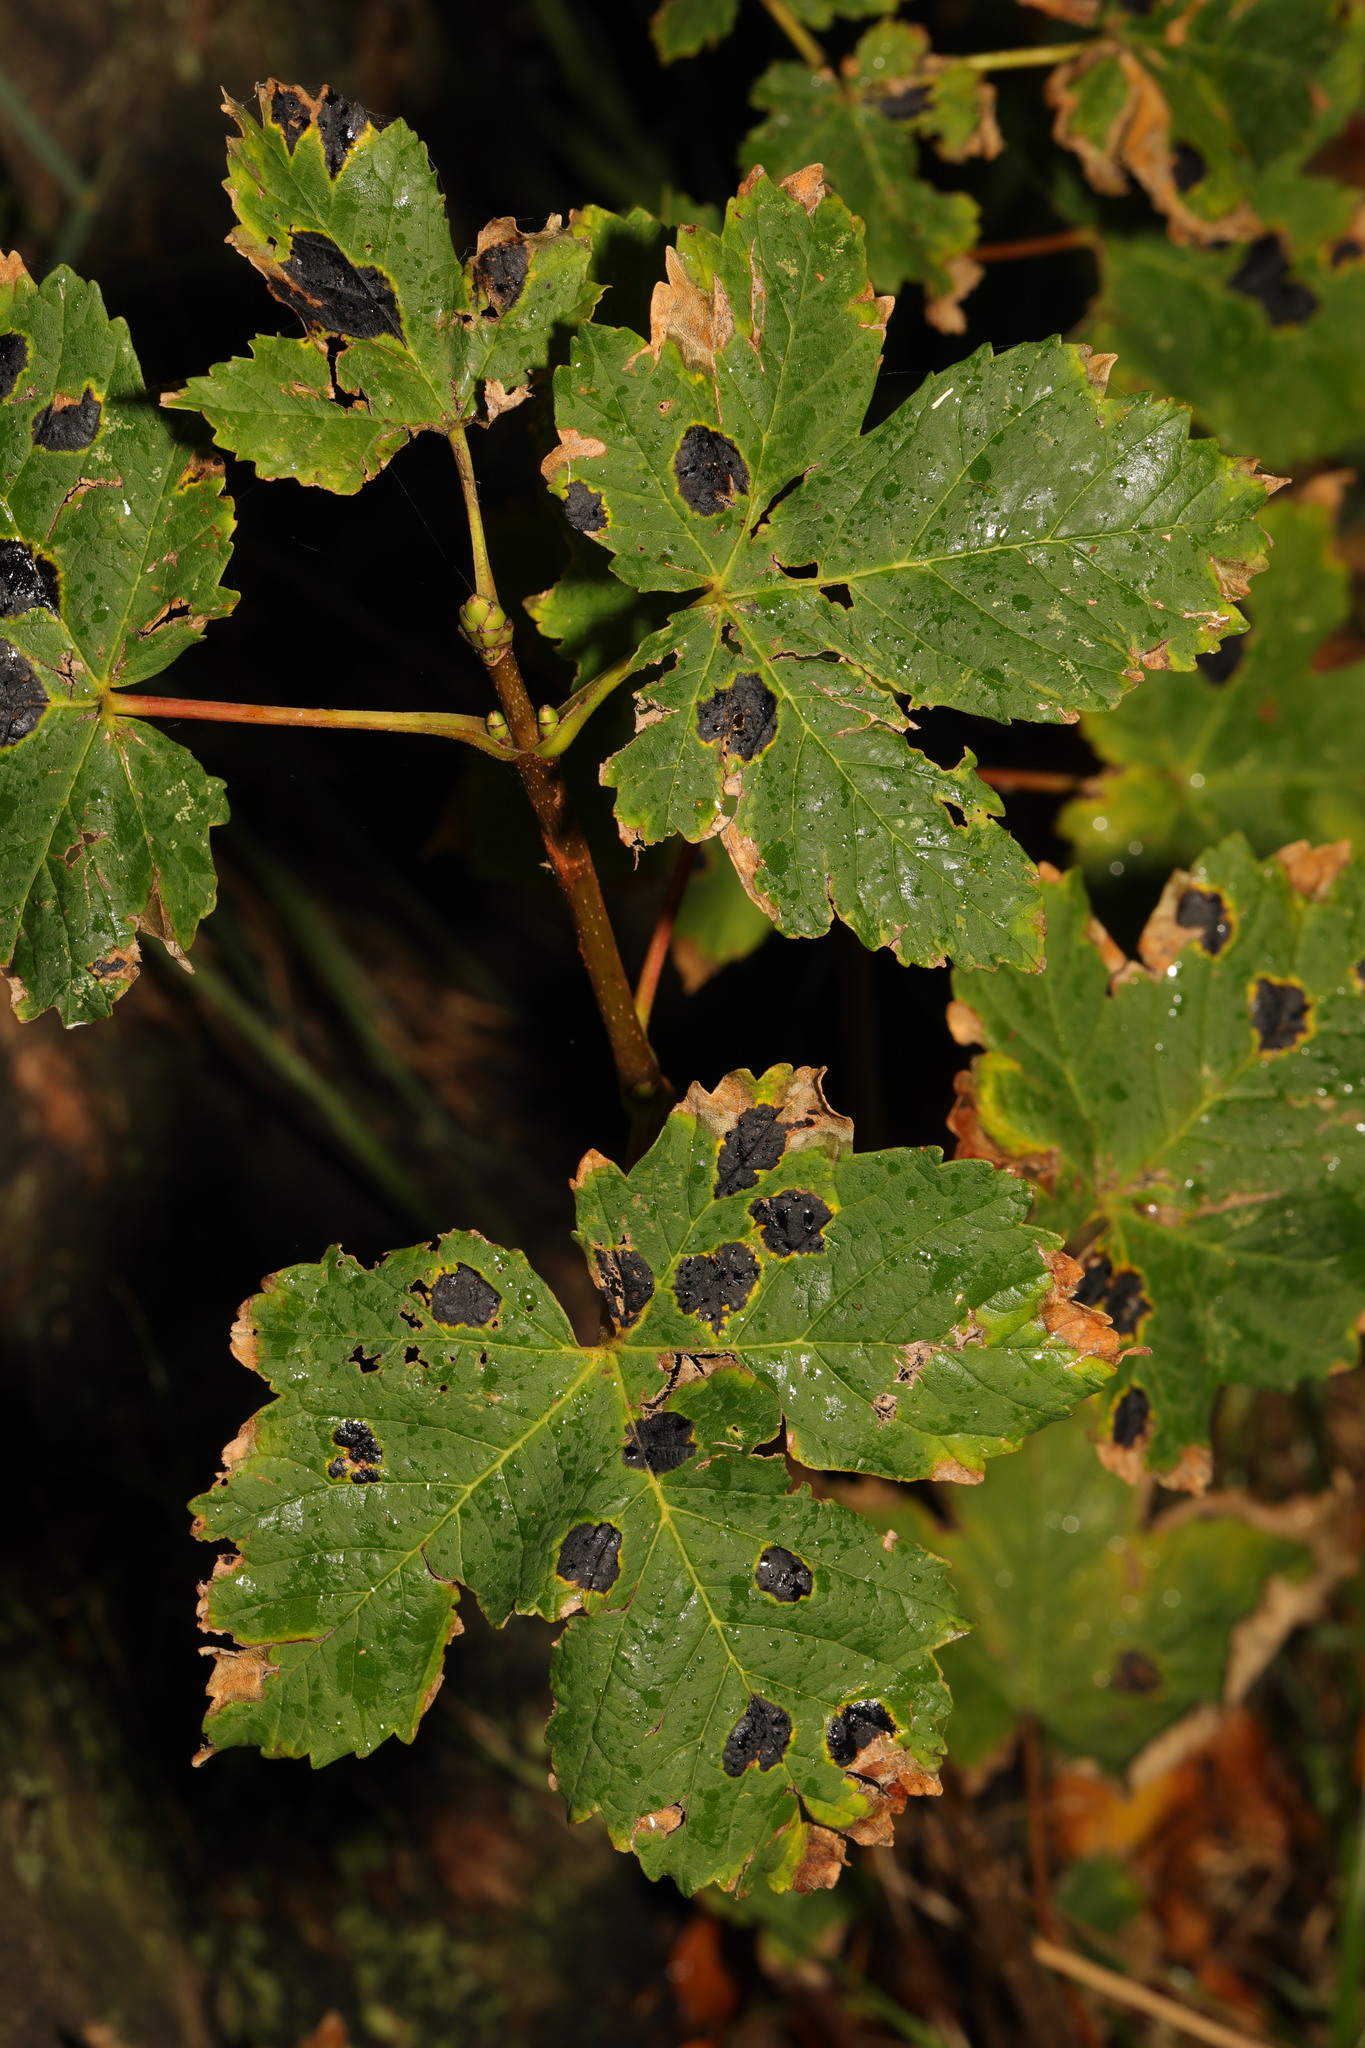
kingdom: Plantae
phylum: Tracheophyta
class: Magnoliopsida
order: Sapindales
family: Sapindaceae
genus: Acer
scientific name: Acer pseudoplatanus
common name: Sycamore
